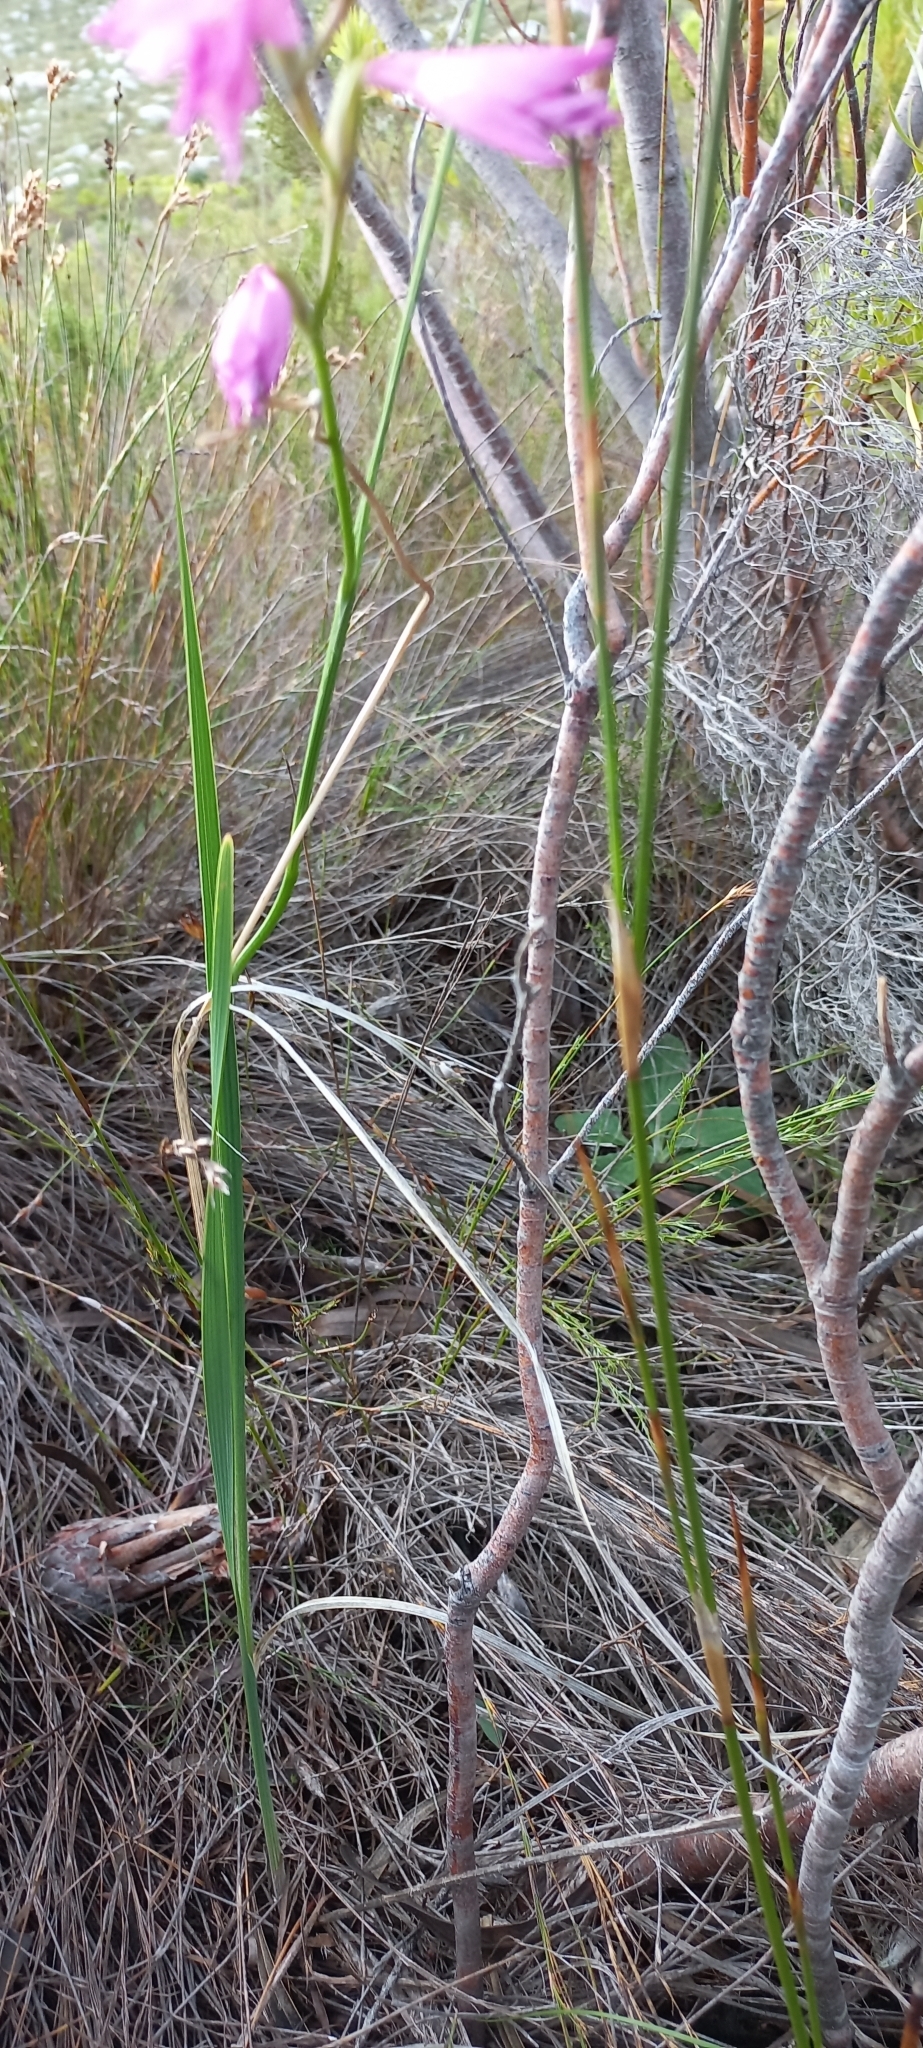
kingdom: Plantae
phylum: Tracheophyta
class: Liliopsida
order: Asparagales
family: Iridaceae
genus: Gladiolus
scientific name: Gladiolus hirsutus
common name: Small pink afrikaner
